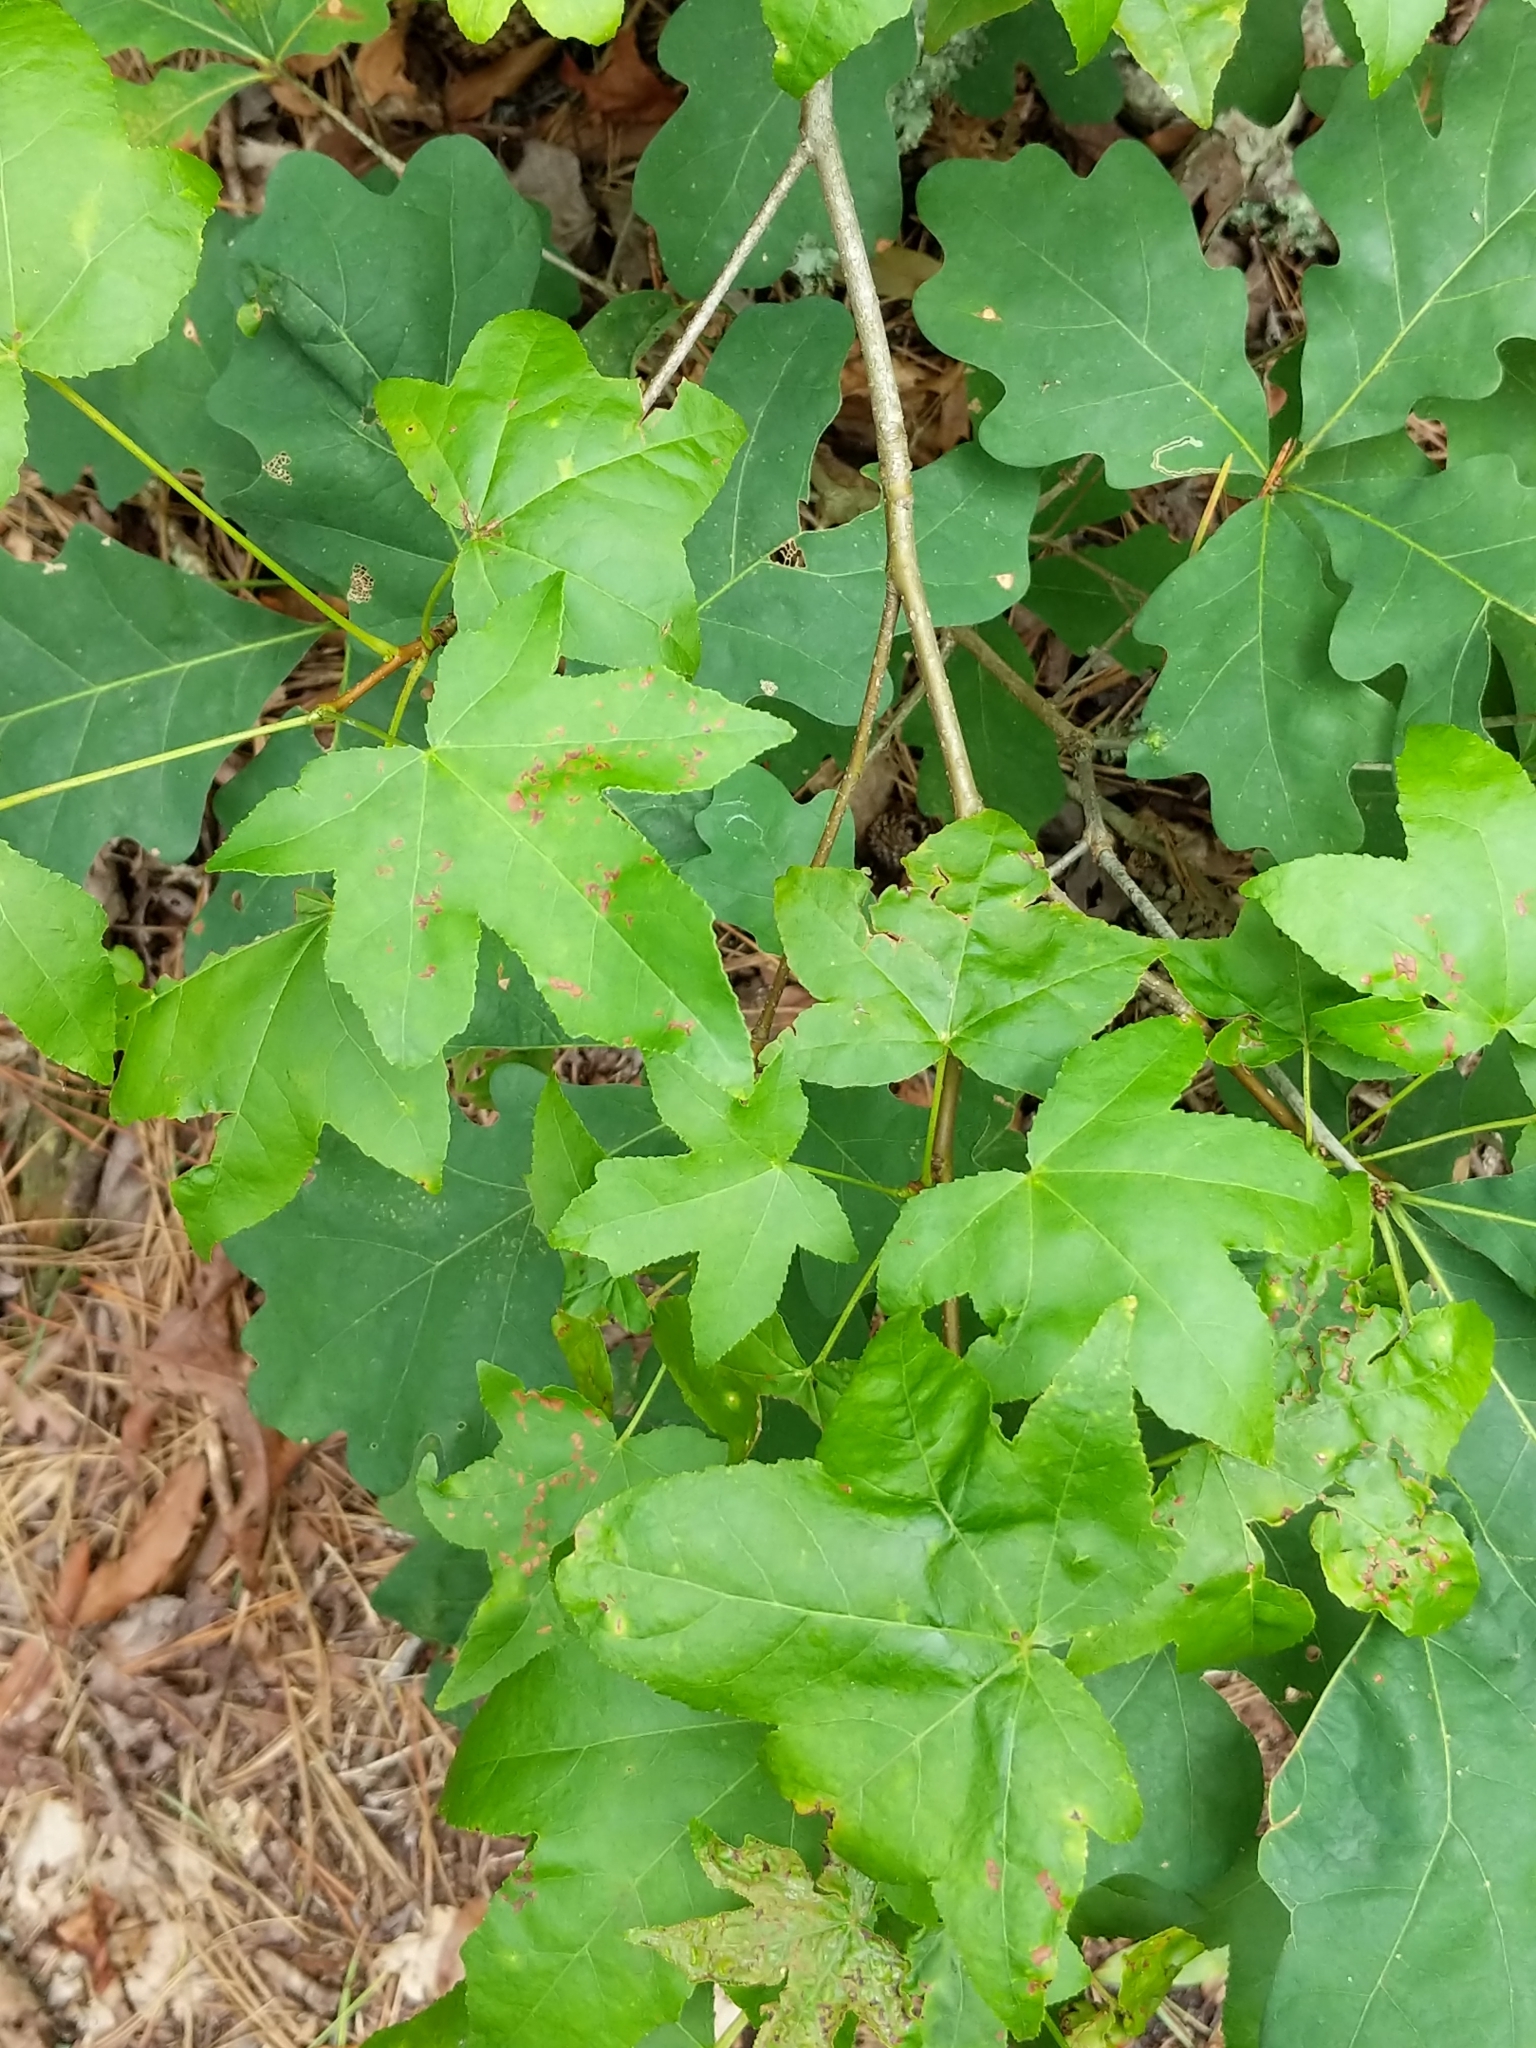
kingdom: Plantae
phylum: Tracheophyta
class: Magnoliopsida
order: Saxifragales
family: Altingiaceae
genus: Liquidambar
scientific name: Liquidambar styraciflua
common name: Sweet gum
